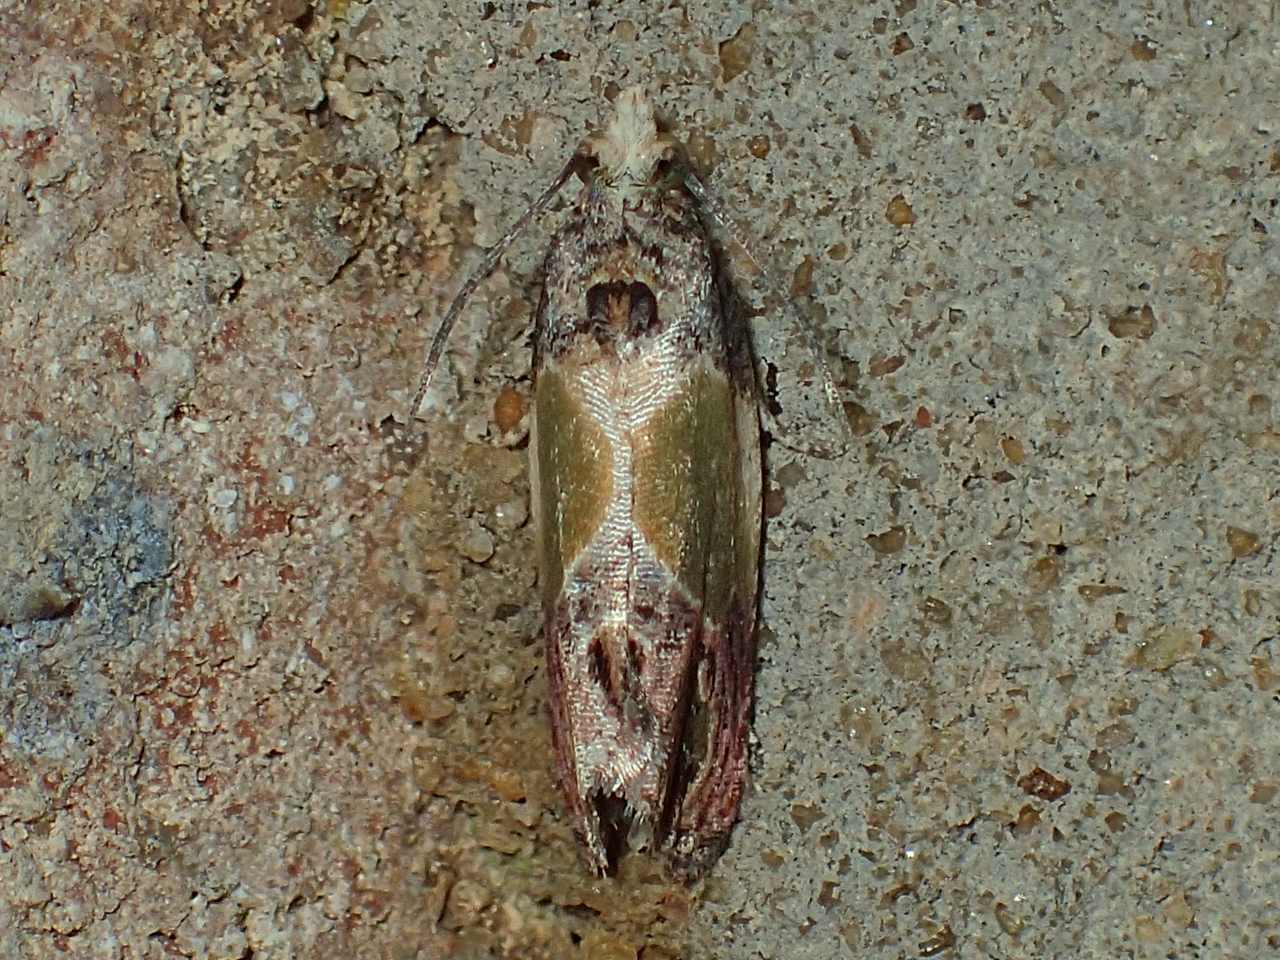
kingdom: Animalia
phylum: Arthropoda
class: Insecta
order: Lepidoptera
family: Tortricidae
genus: Eumarozia
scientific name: Eumarozia malachitana
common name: Sculptured moth
